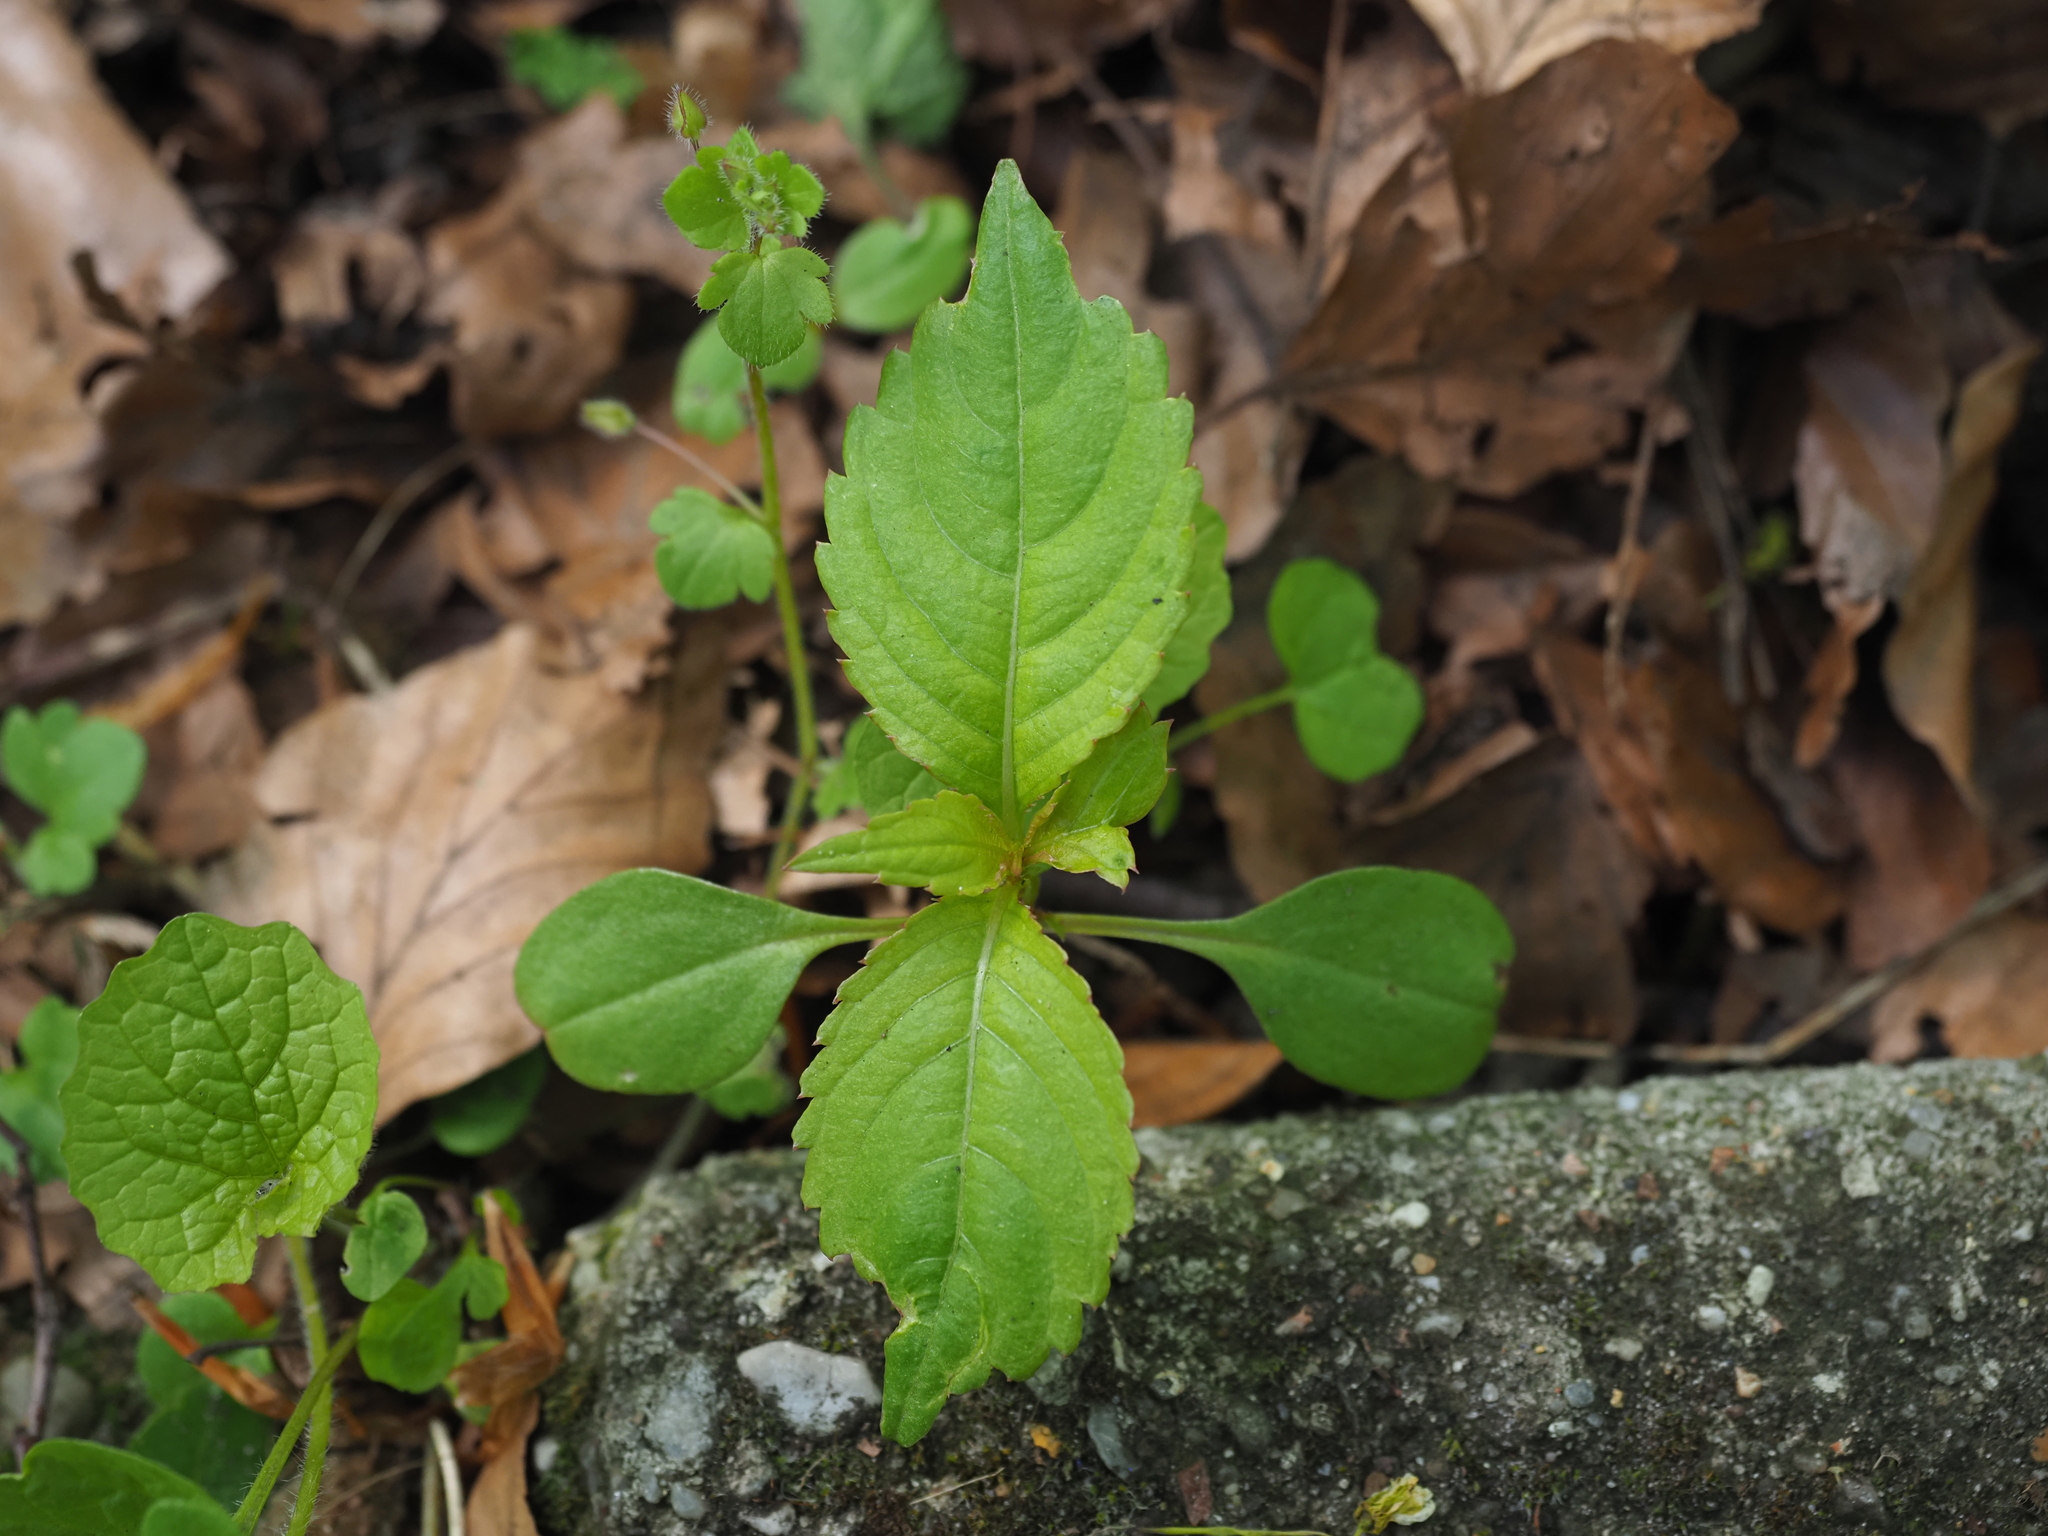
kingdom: Plantae
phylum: Tracheophyta
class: Magnoliopsida
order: Ericales
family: Balsaminaceae
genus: Impatiens
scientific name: Impatiens parviflora
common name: Small balsam
